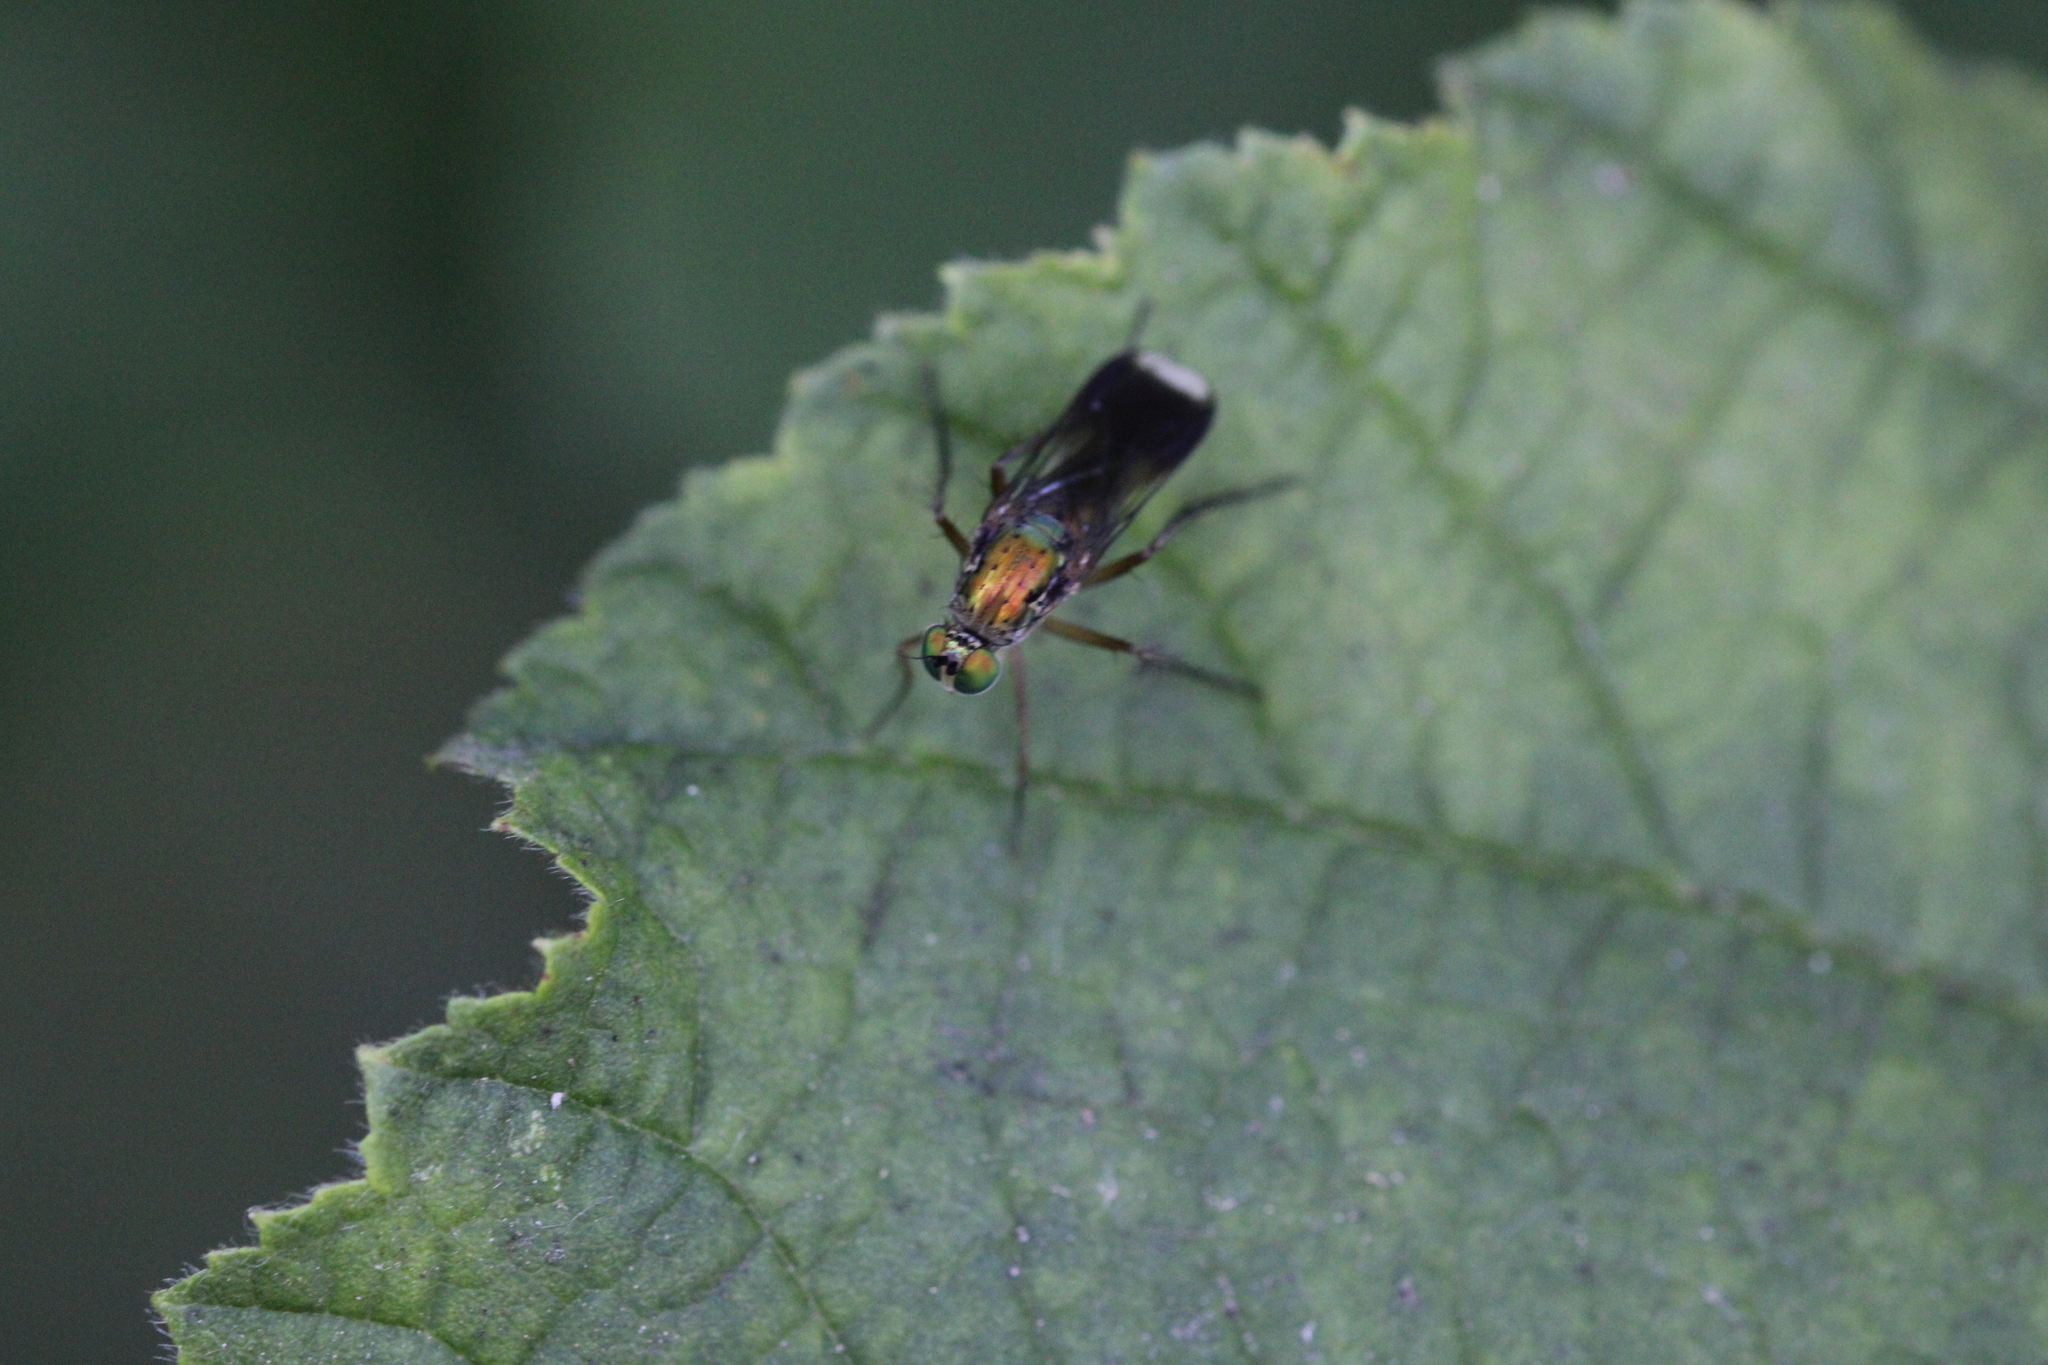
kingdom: Animalia
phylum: Arthropoda
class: Insecta
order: Diptera
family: Dolichopodidae
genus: Poecilobothrus
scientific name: Poecilobothrus nobilitatus
